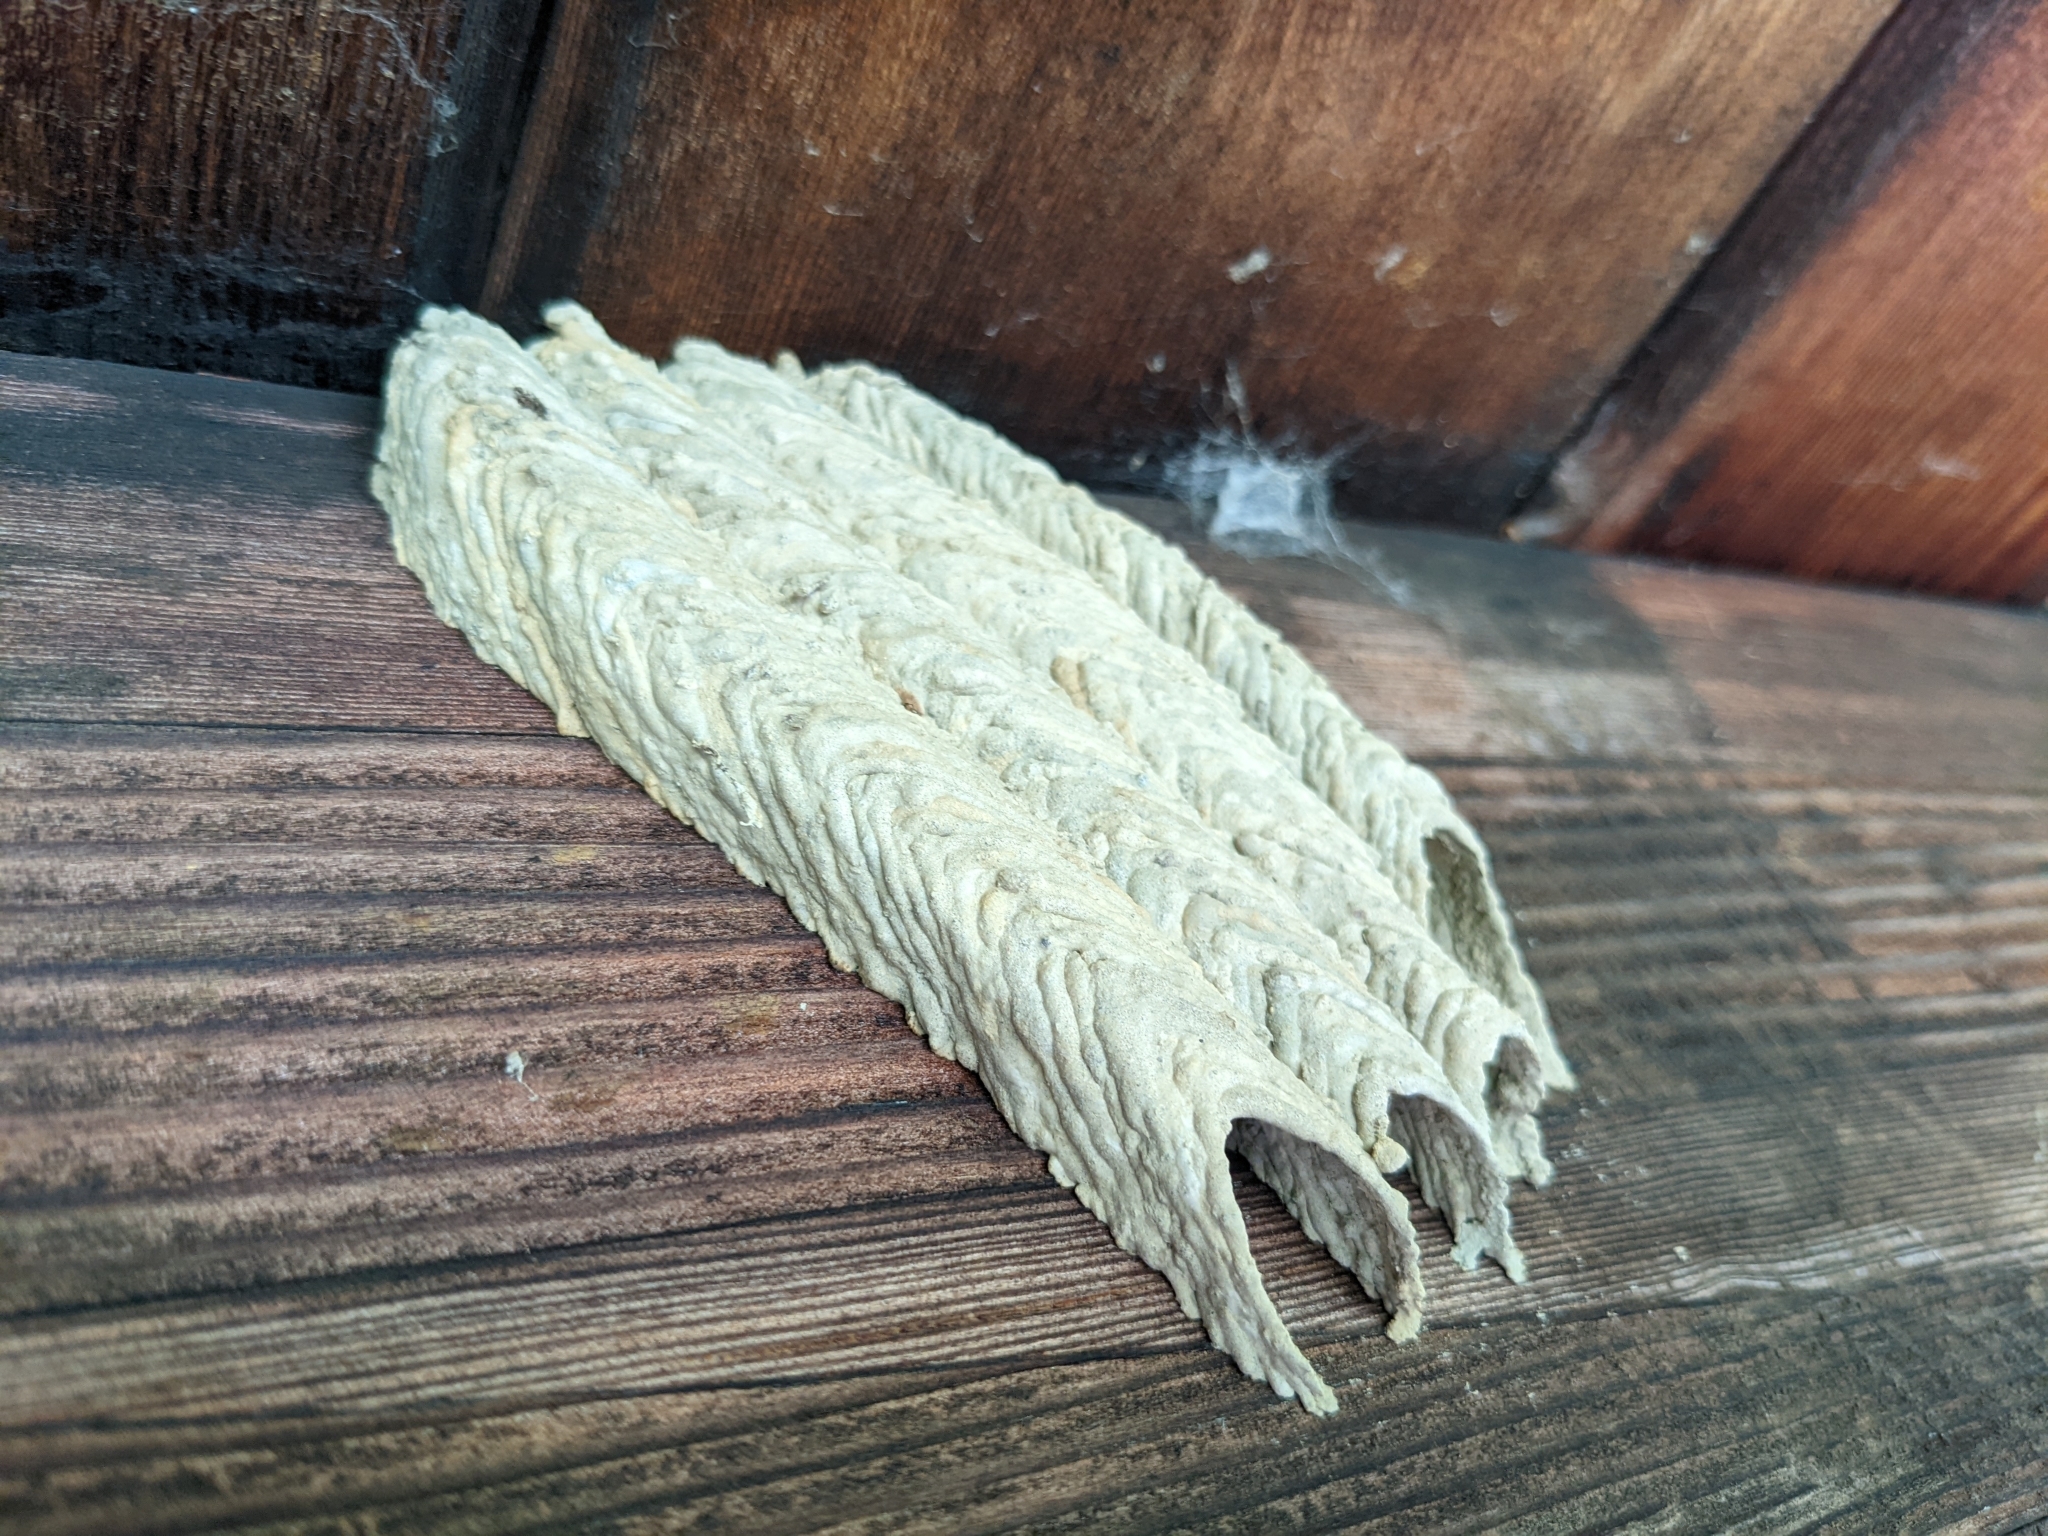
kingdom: Animalia
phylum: Arthropoda
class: Insecta
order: Hymenoptera
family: Crabronidae
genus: Trypoxylon
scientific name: Trypoxylon politum
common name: Organ-pipe mud-dauber wasp
